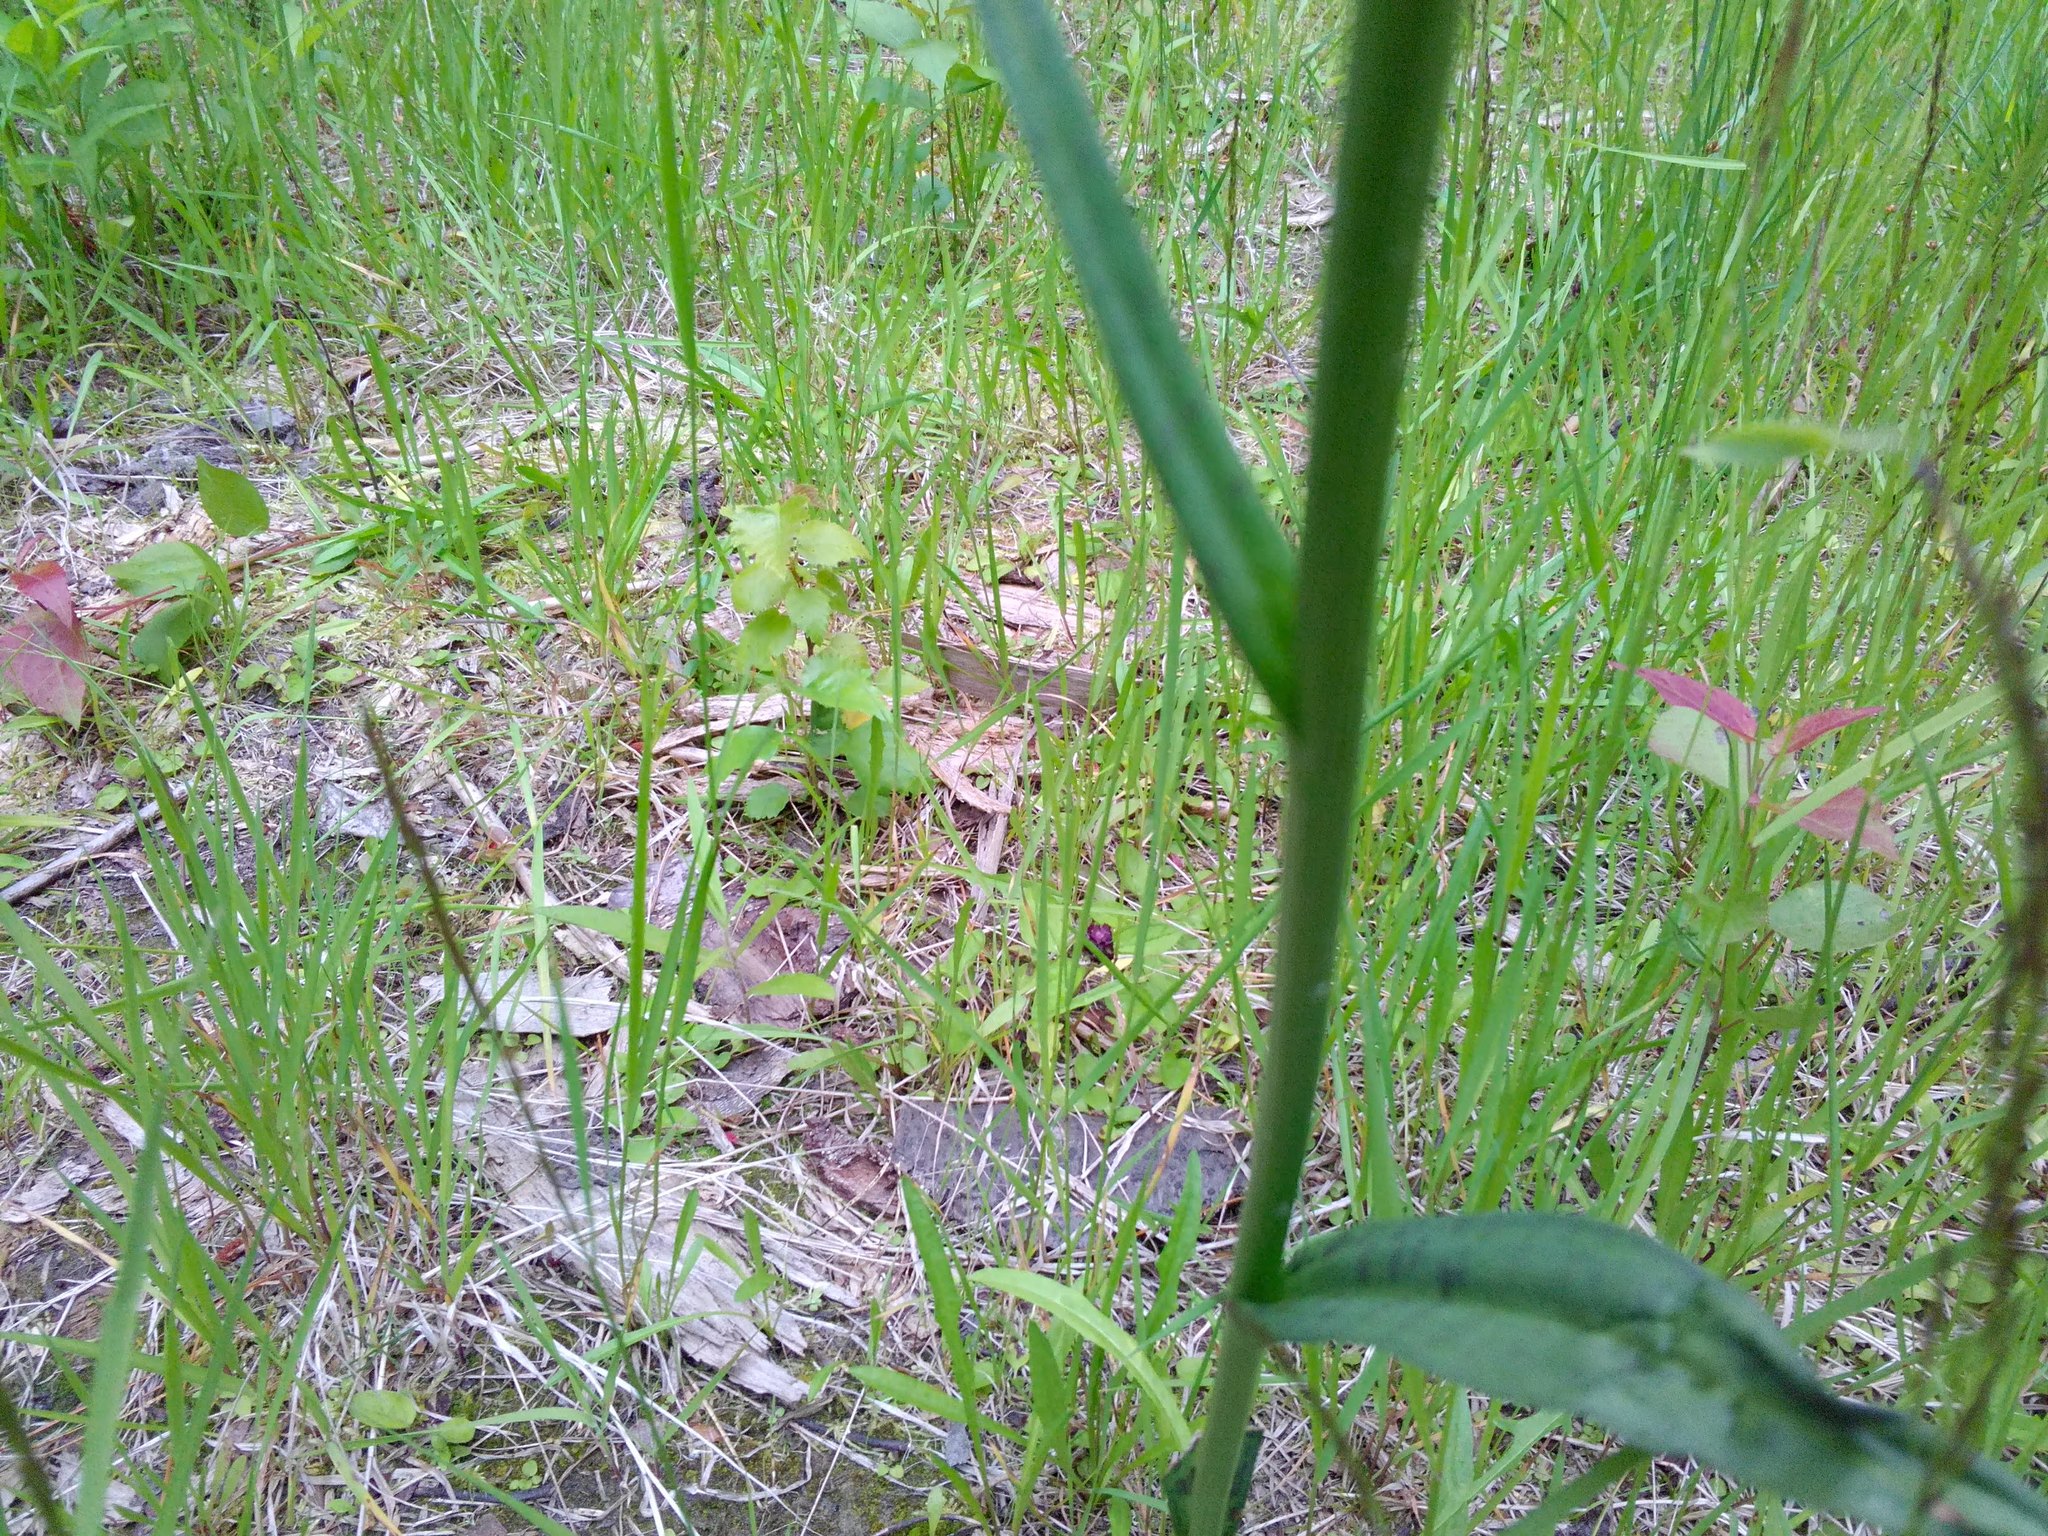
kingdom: Plantae
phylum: Tracheophyta
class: Liliopsida
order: Asparagales
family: Orchidaceae
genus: Dactylorhiza
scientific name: Dactylorhiza maculata
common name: Heath spotted-orchid
